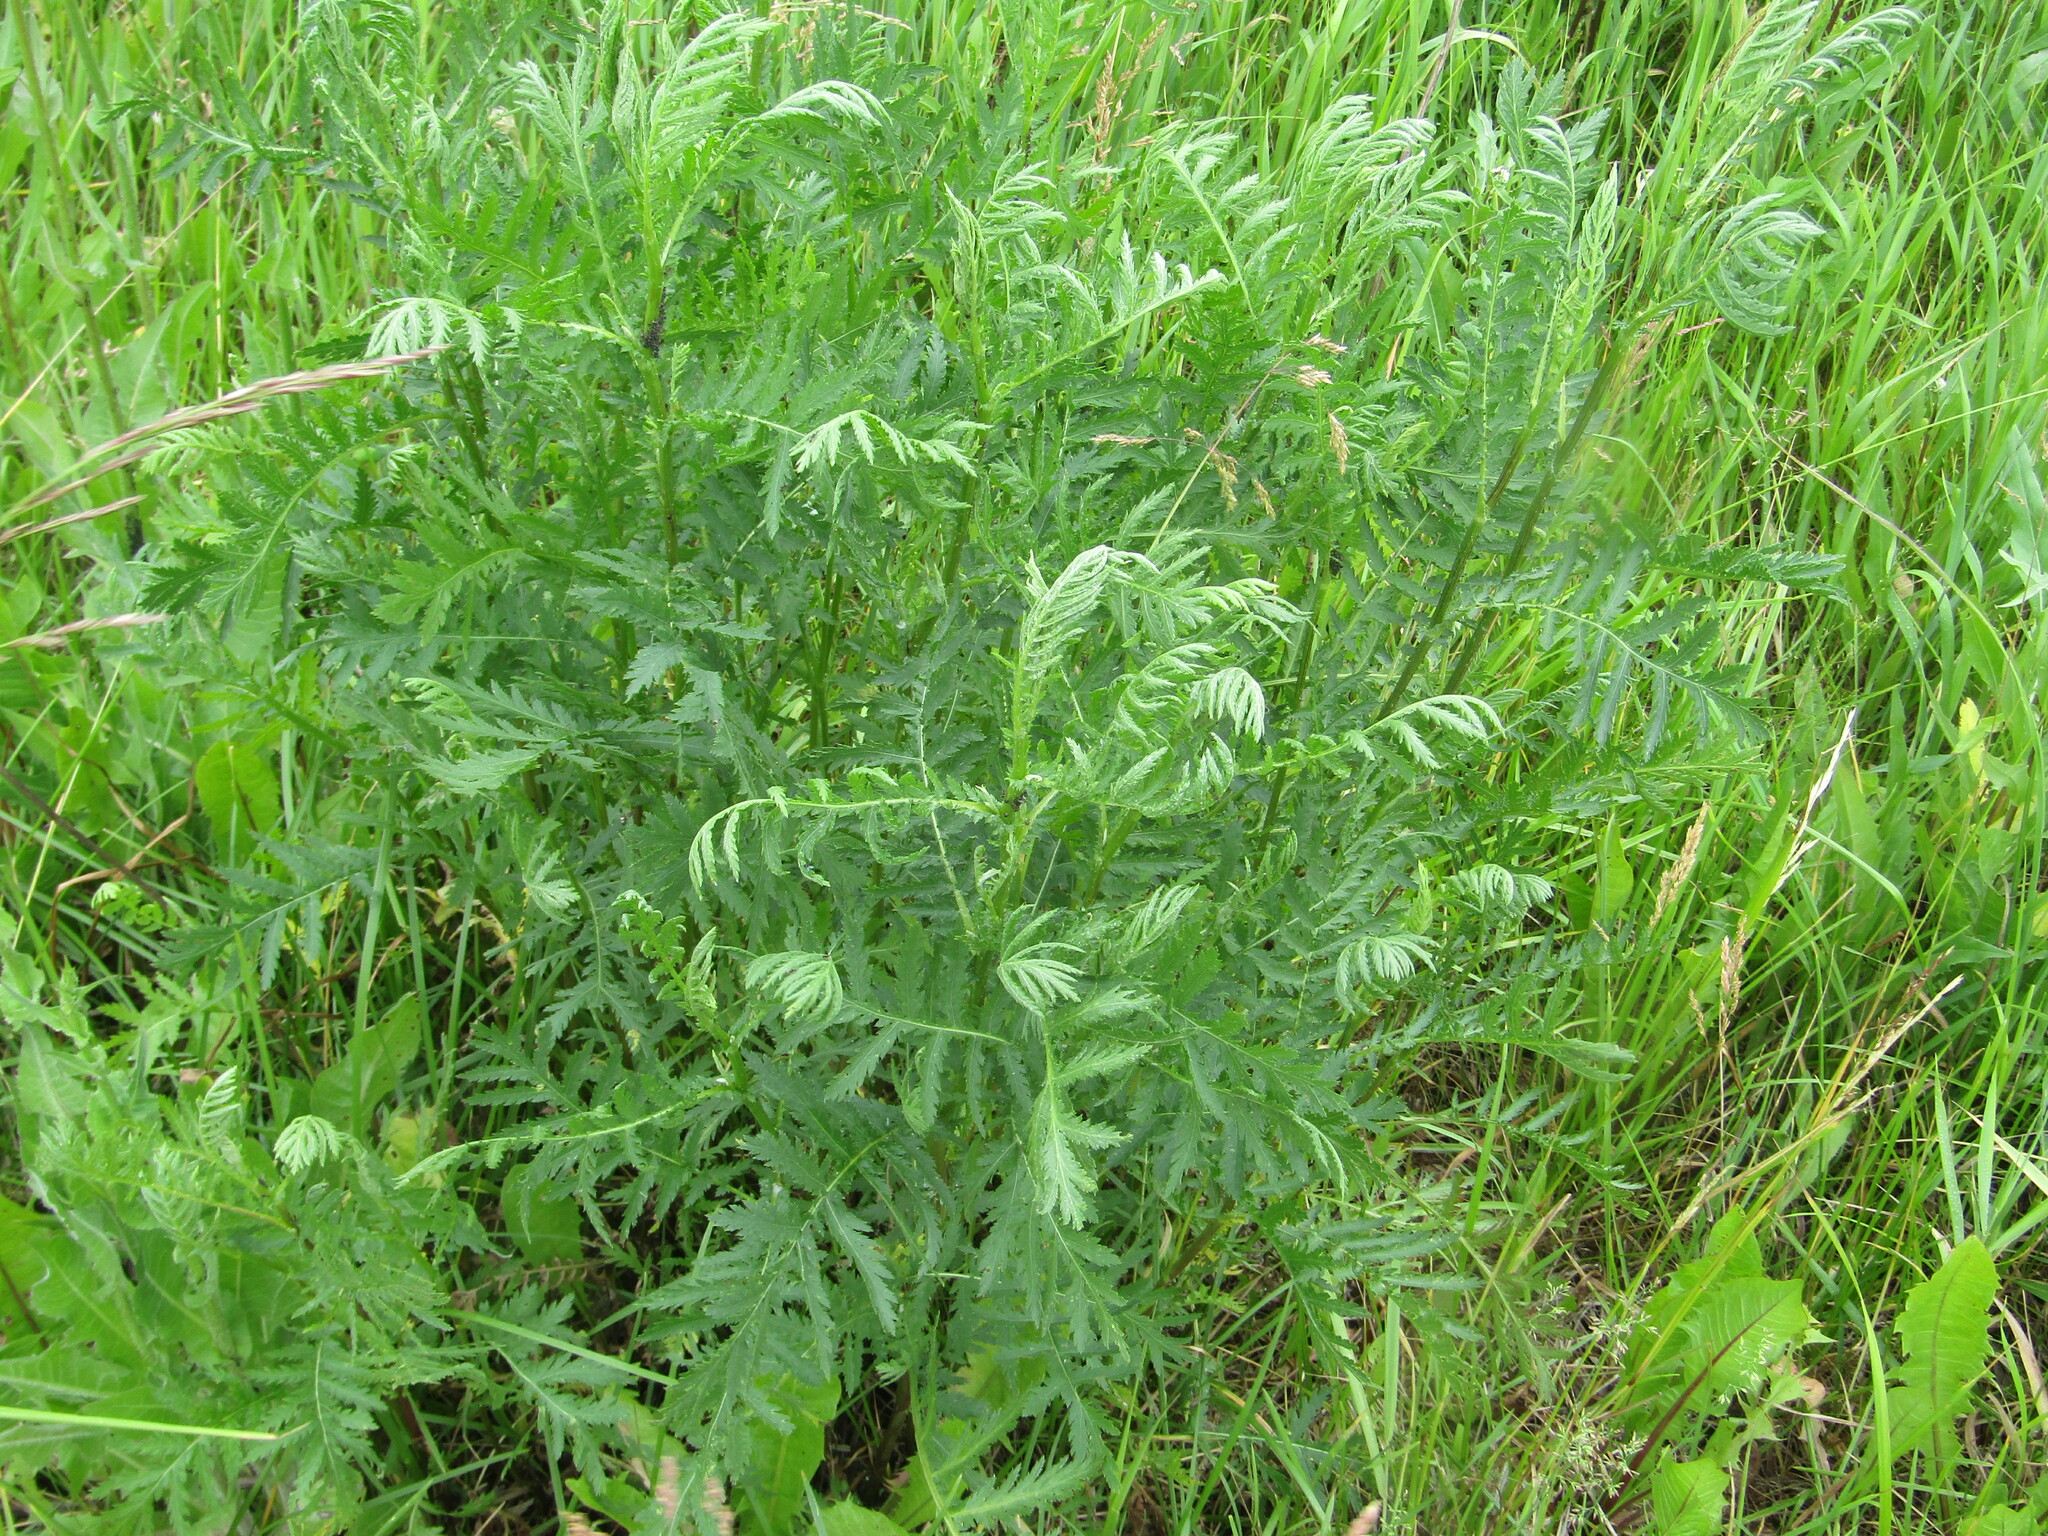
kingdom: Plantae
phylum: Tracheophyta
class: Magnoliopsida
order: Asterales
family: Asteraceae
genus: Tanacetum
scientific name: Tanacetum vulgare
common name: Common tansy
